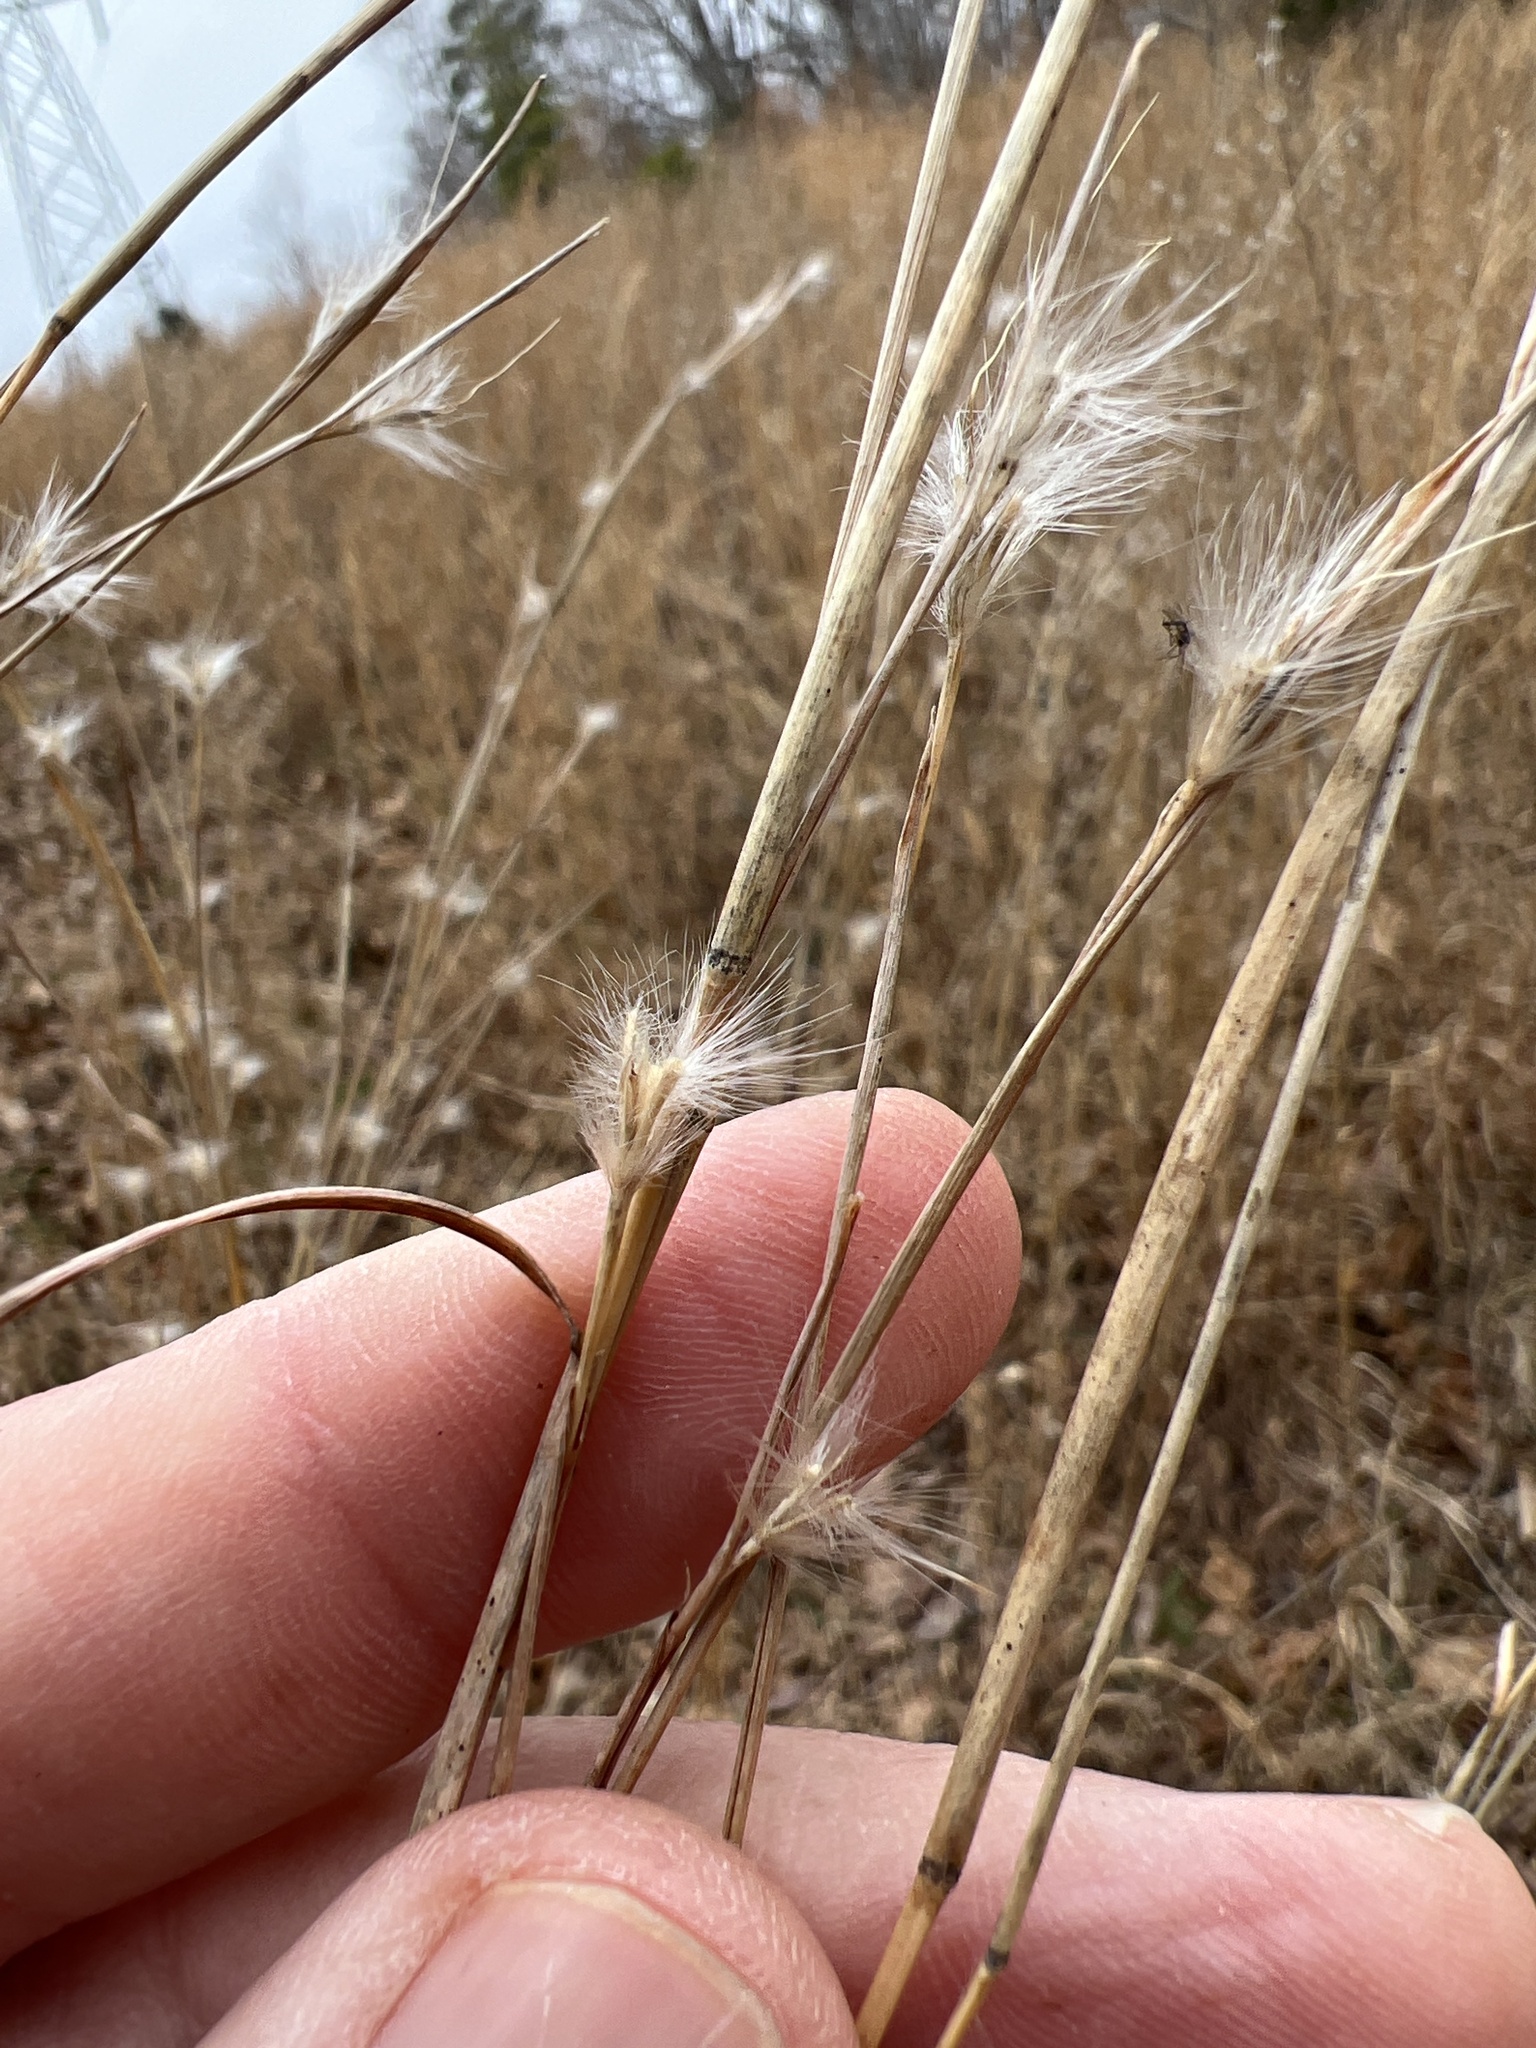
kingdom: Plantae
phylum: Tracheophyta
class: Liliopsida
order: Poales
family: Poaceae
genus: Andropogon
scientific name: Andropogon ternarius
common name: Split bluestem
